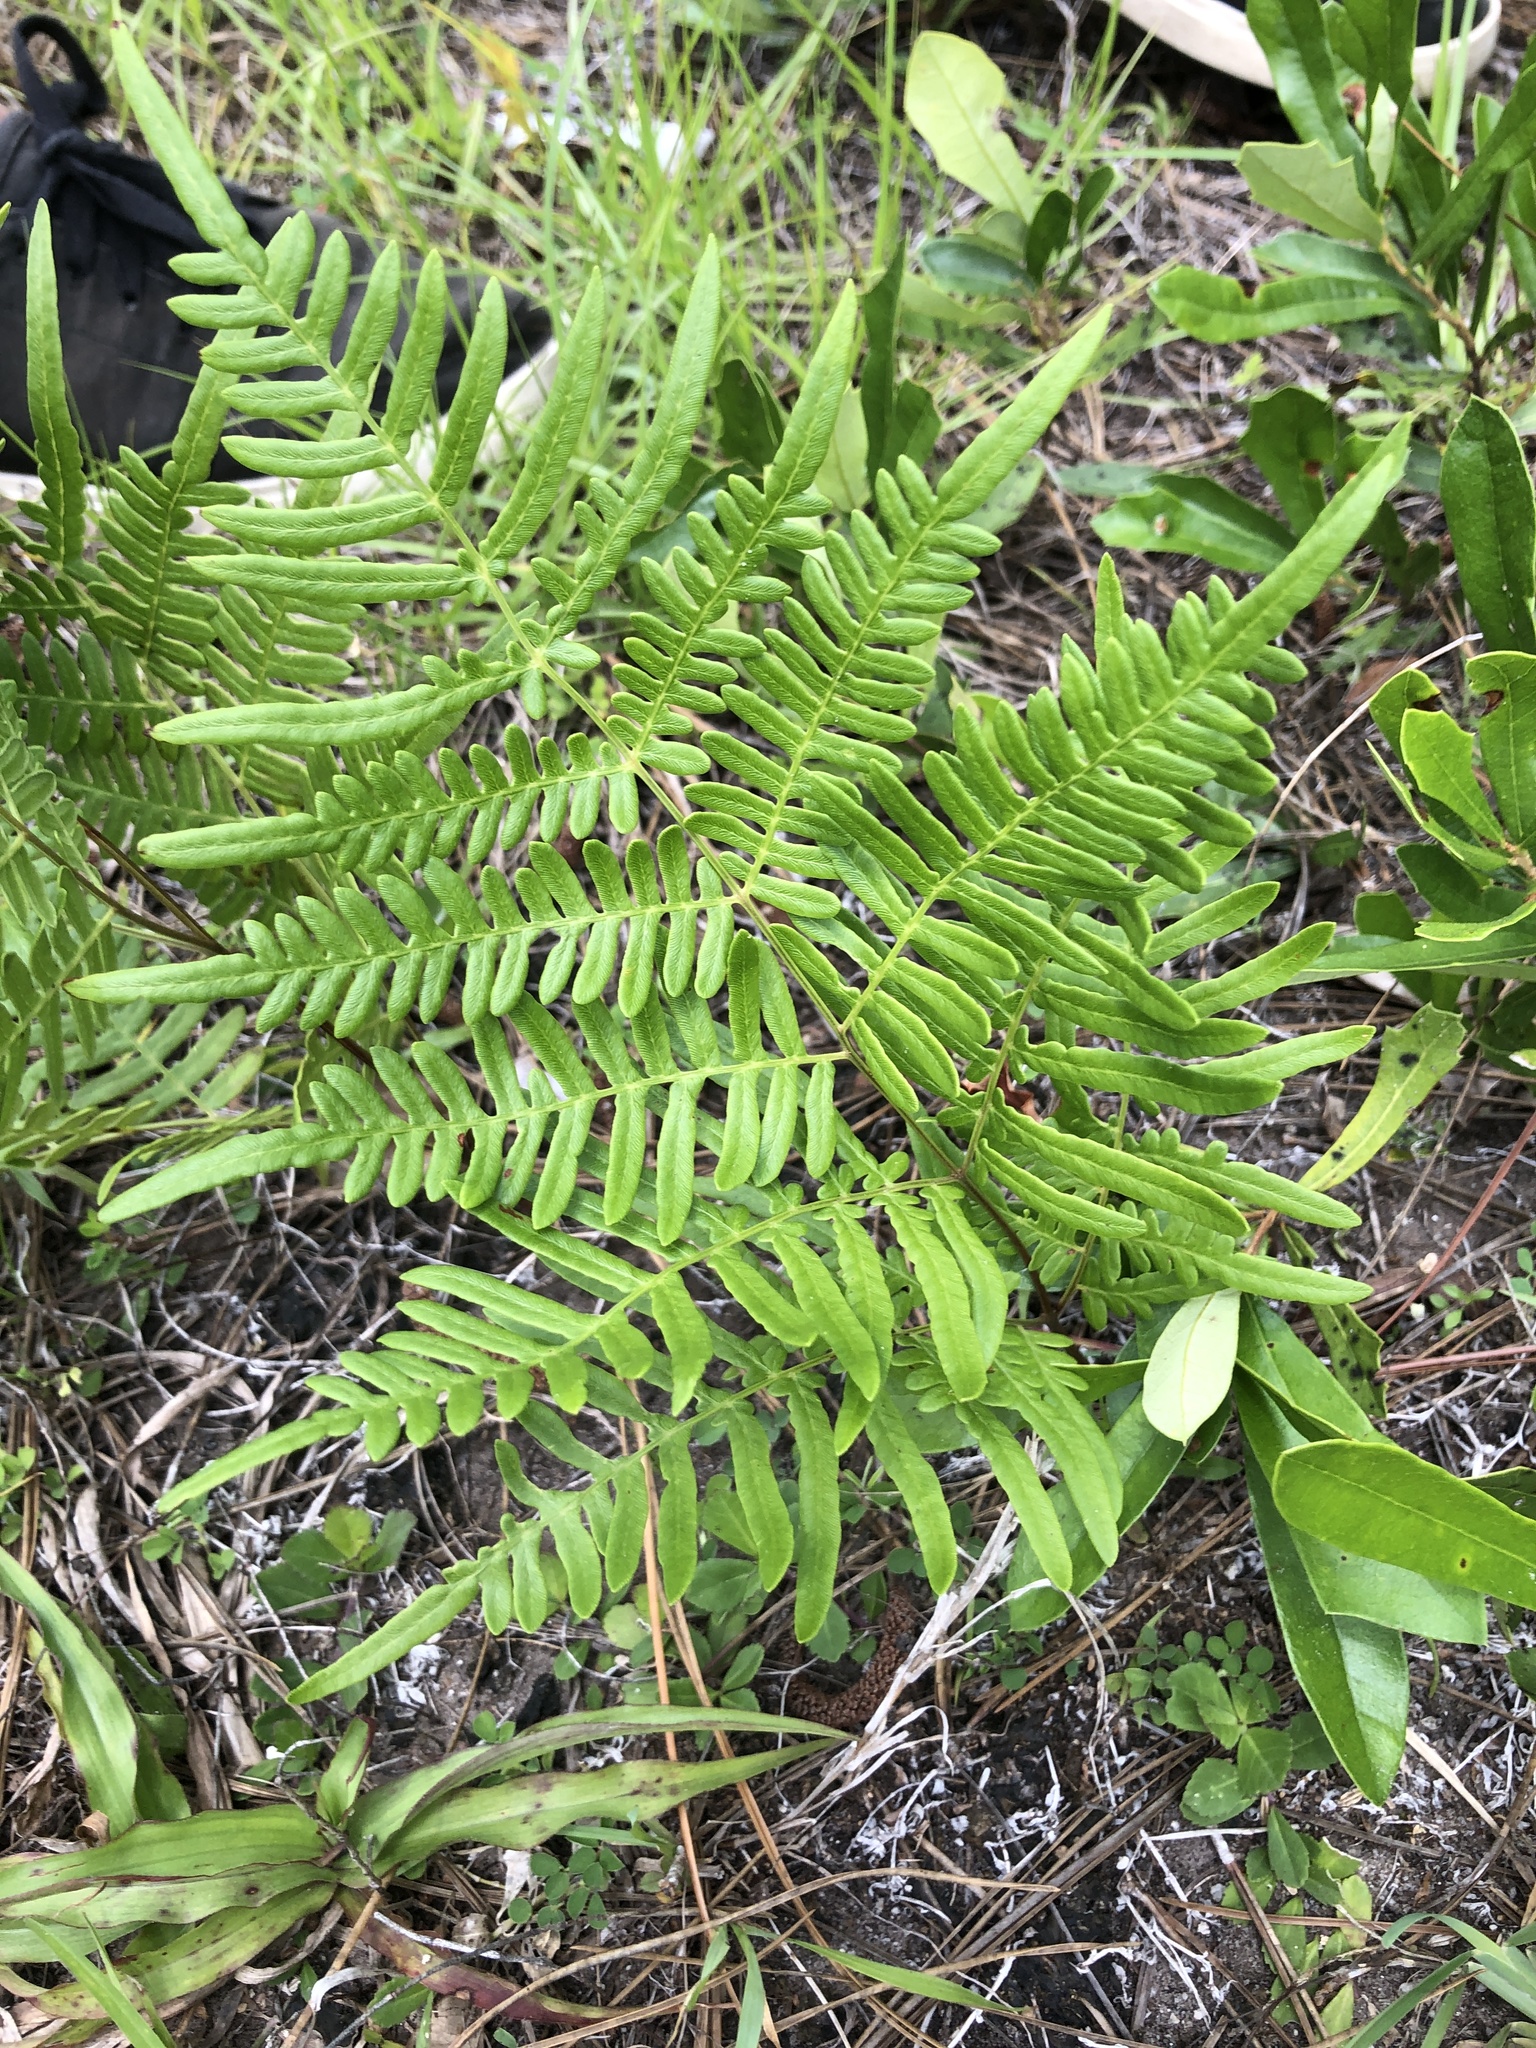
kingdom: Plantae
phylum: Tracheophyta
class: Polypodiopsida
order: Polypodiales
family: Dennstaedtiaceae
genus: Pteridium
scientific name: Pteridium aquilinum
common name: Bracken
